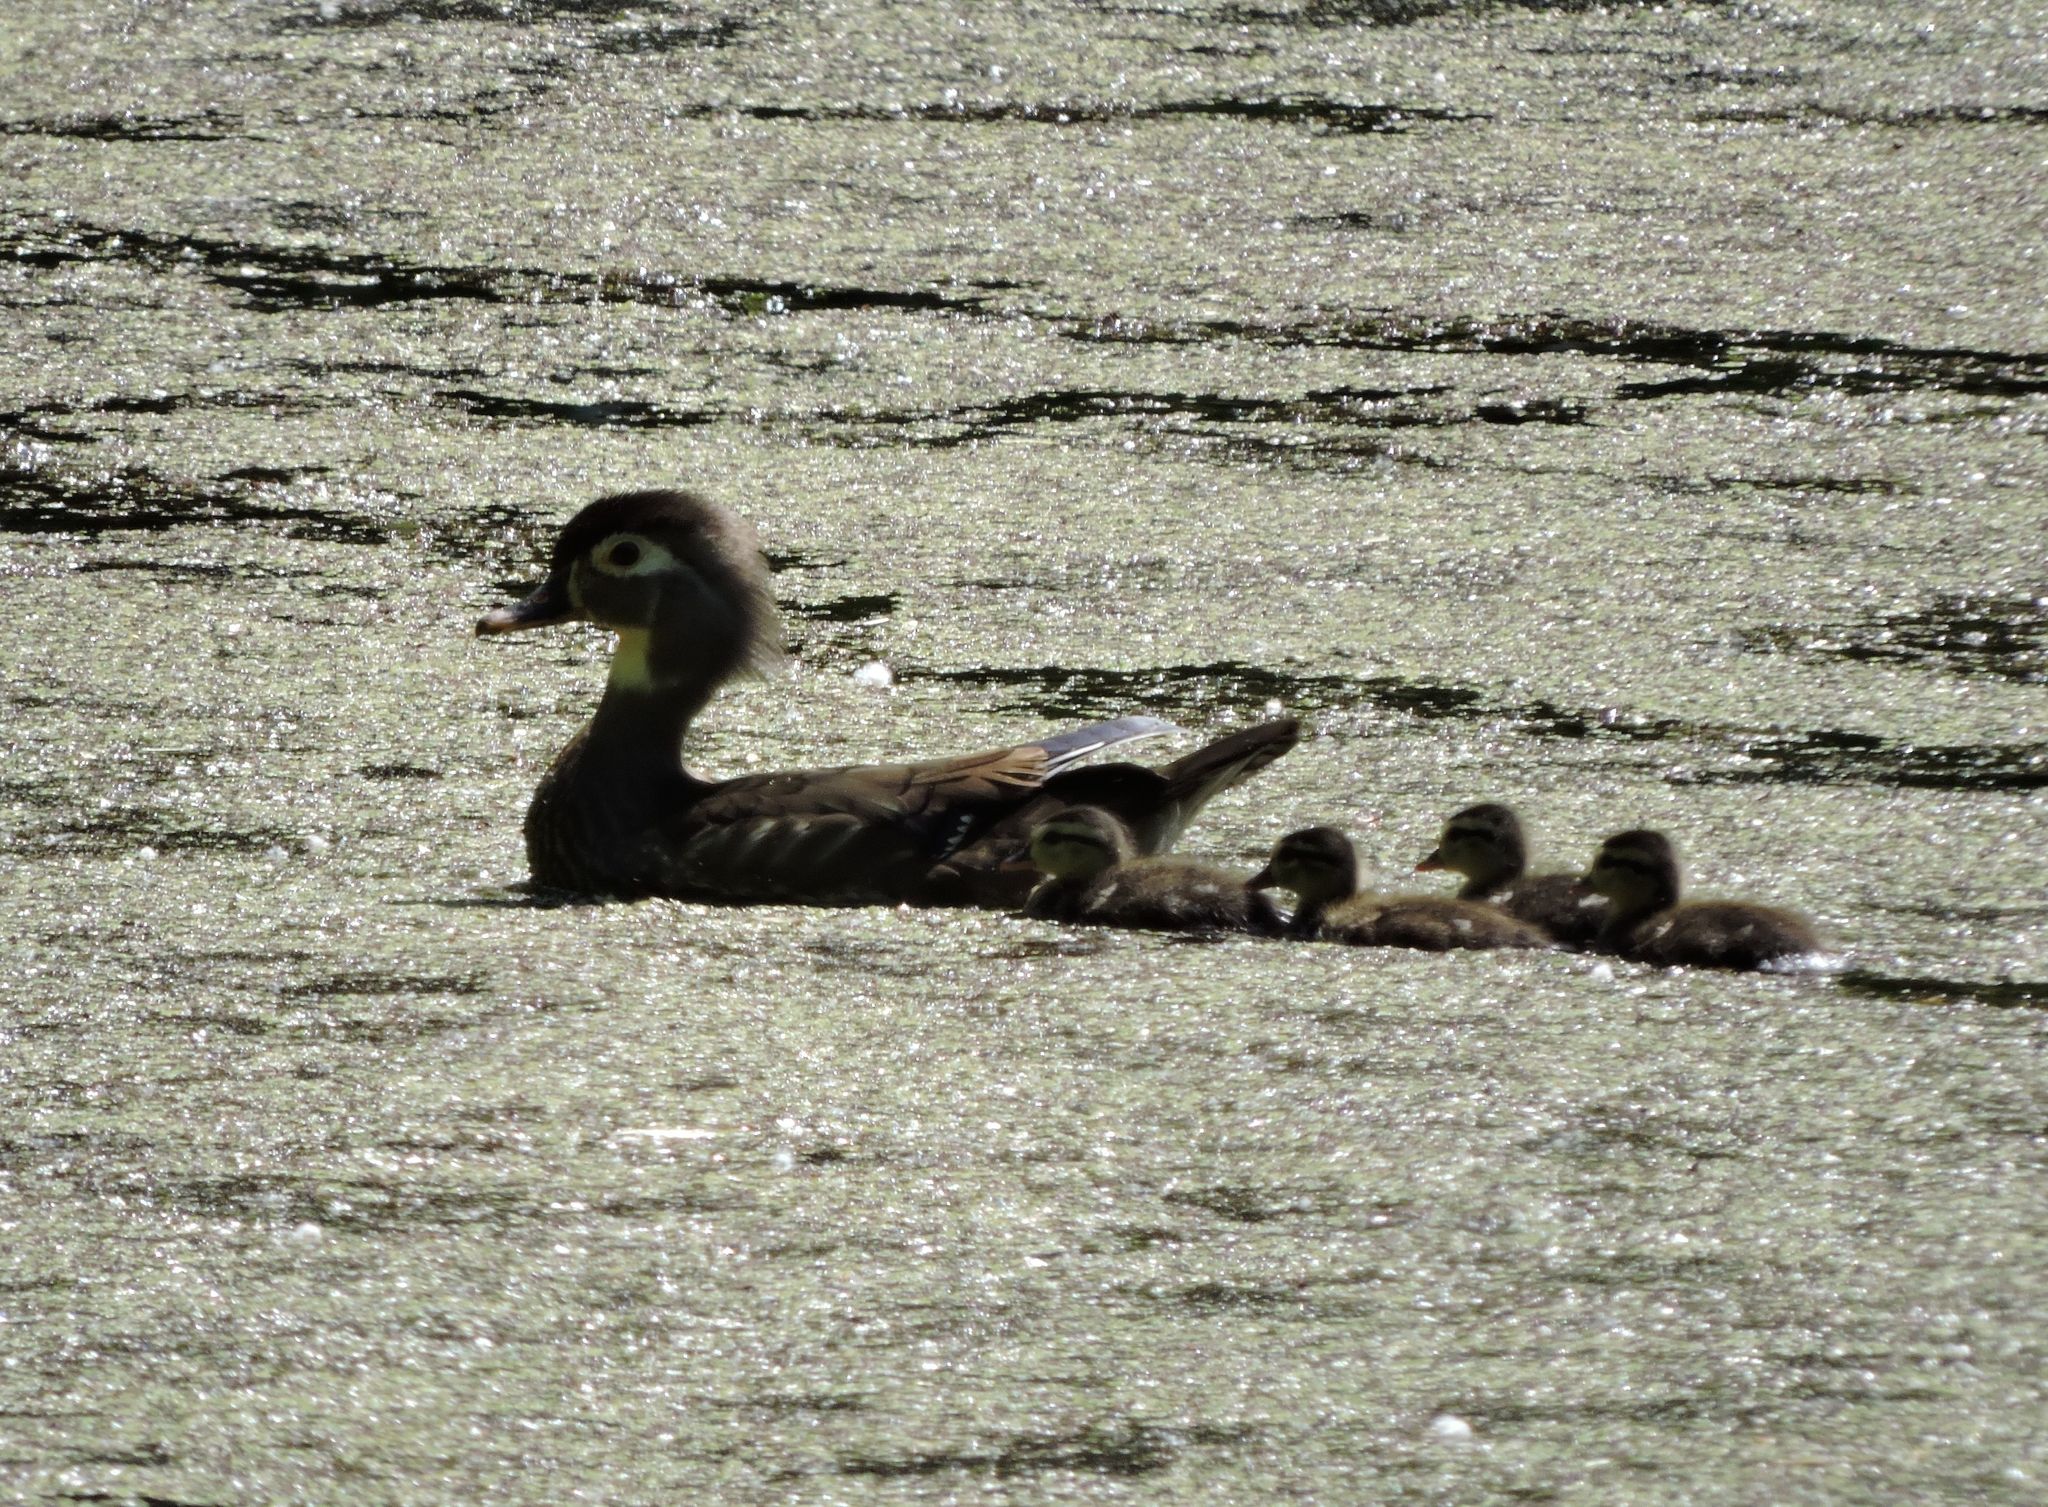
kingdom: Animalia
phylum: Chordata
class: Aves
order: Anseriformes
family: Anatidae
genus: Aix
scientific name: Aix sponsa
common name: Wood duck
